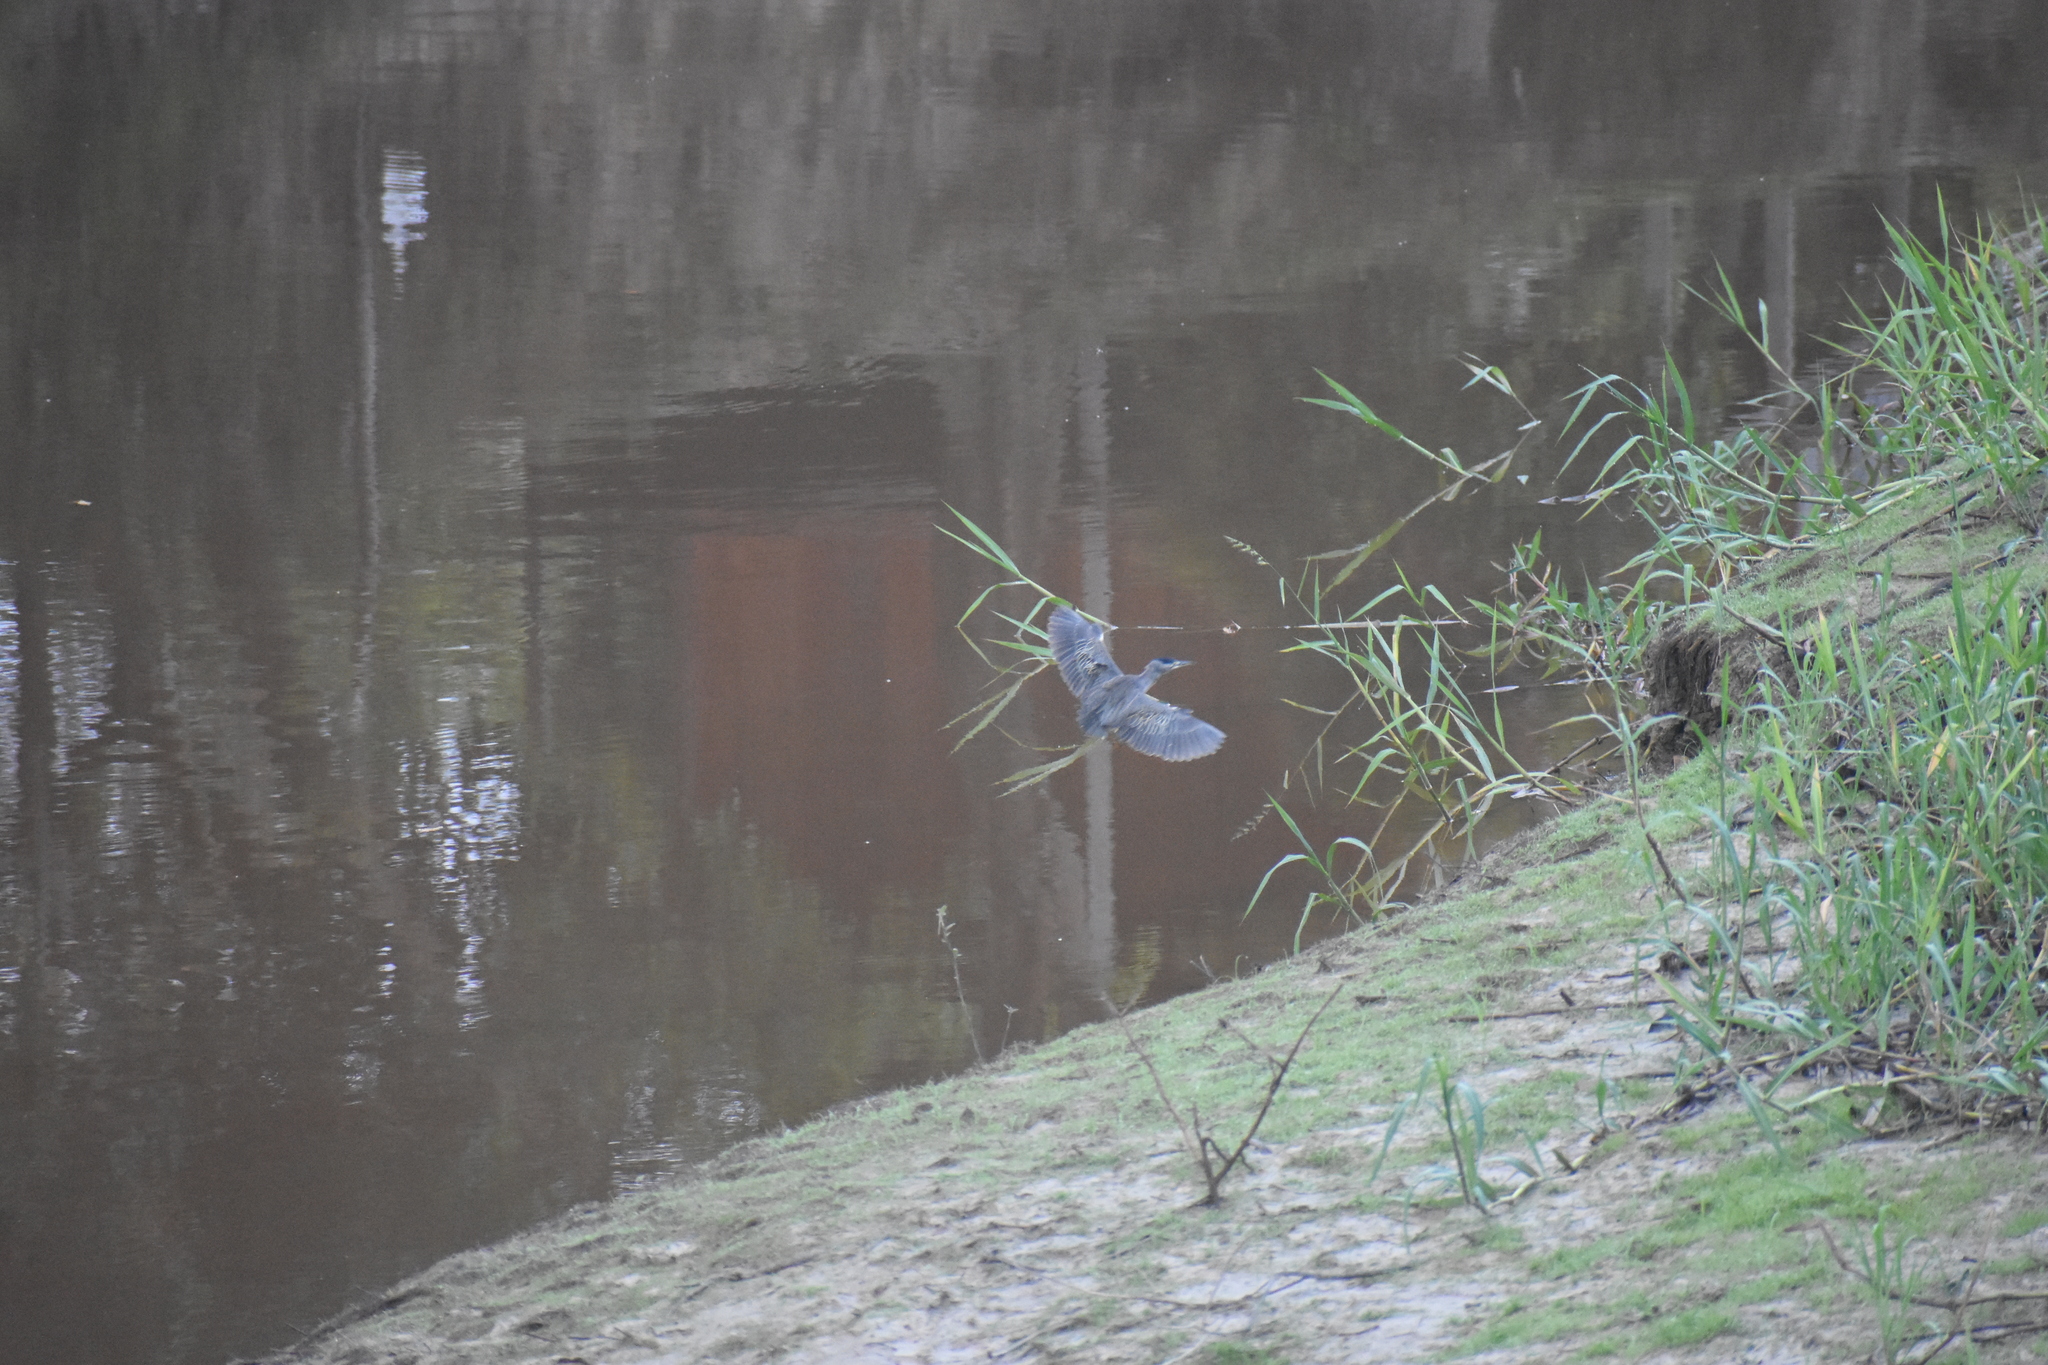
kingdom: Animalia
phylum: Chordata
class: Aves
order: Pelecaniformes
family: Ardeidae
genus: Butorides
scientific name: Butorides striata
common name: Striated heron
